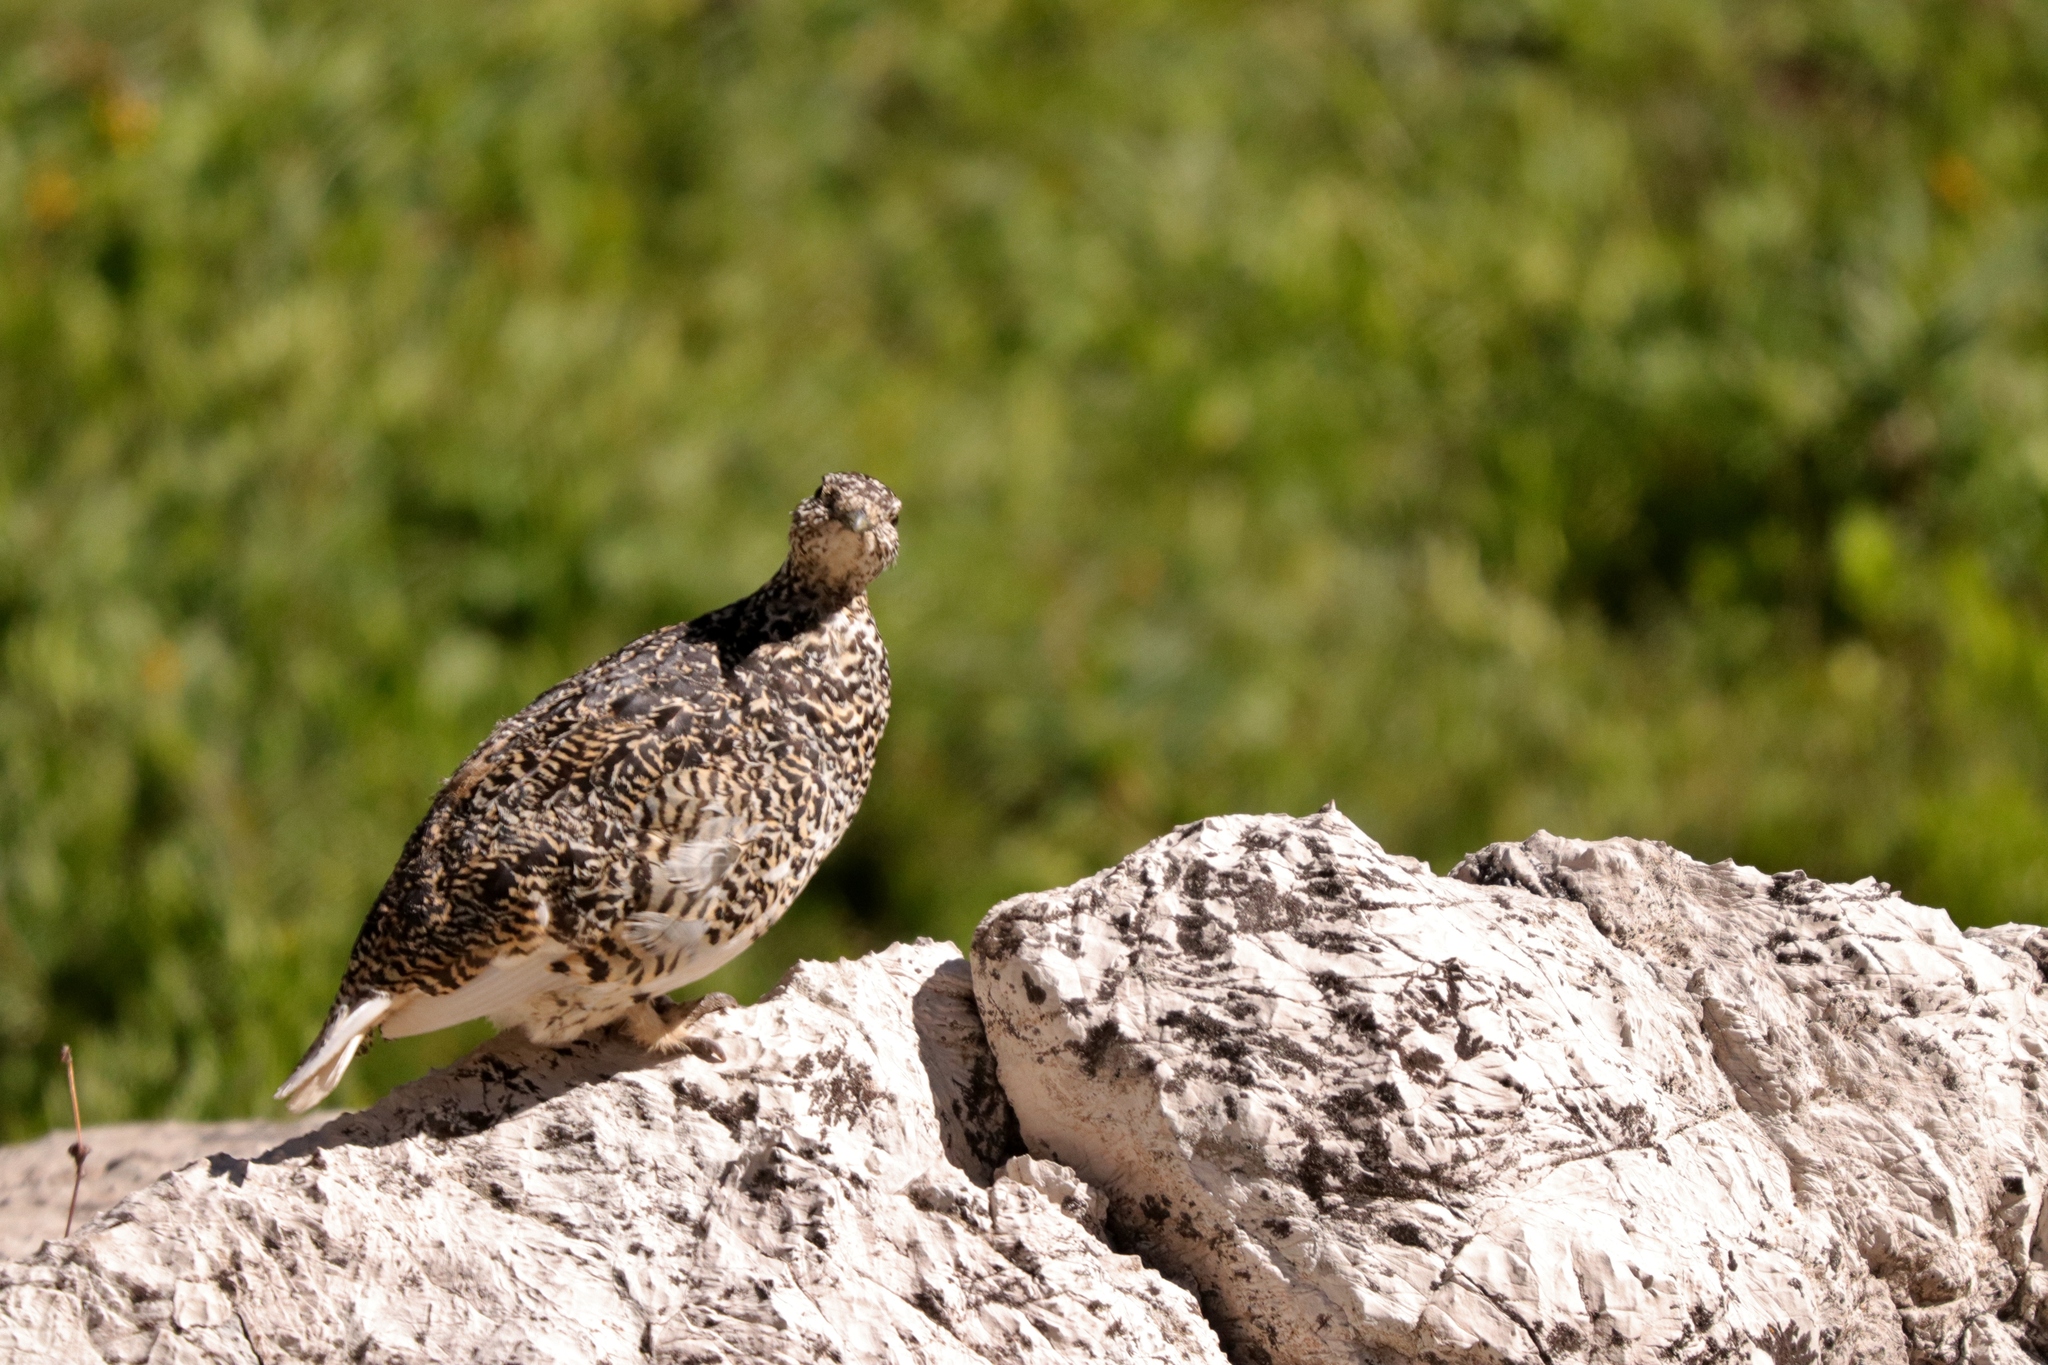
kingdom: Animalia
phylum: Chordata
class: Aves
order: Galliformes
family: Phasianidae
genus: Lagopus
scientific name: Lagopus leucura
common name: White-tailed ptarmigan
